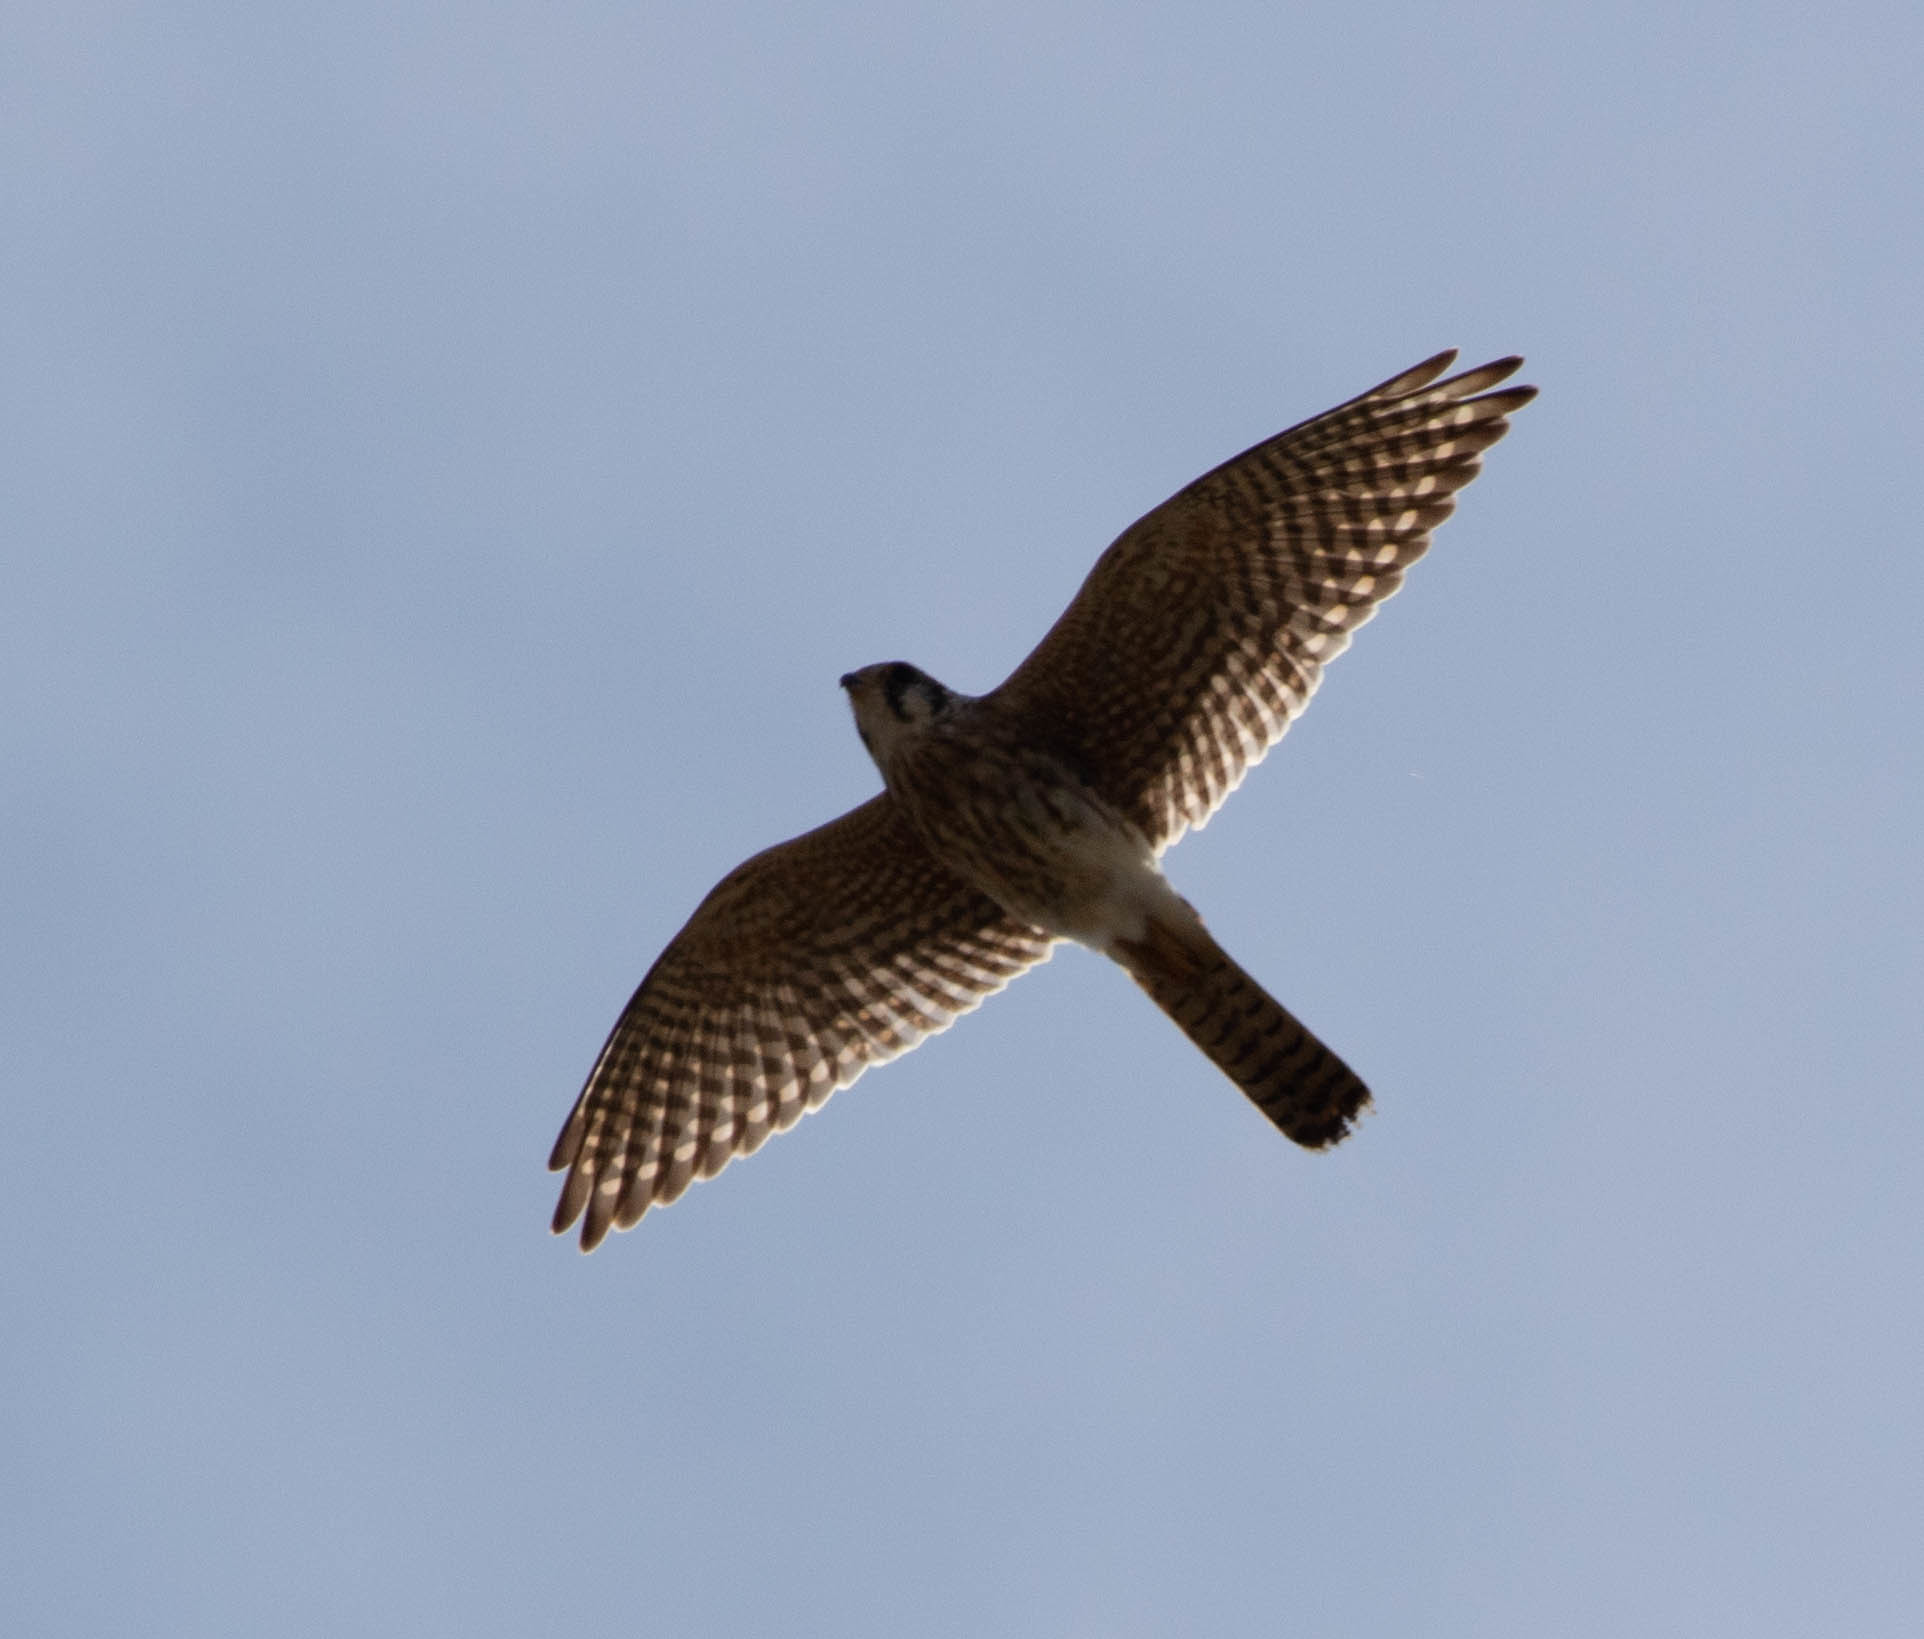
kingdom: Animalia
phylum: Chordata
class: Aves
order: Falconiformes
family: Falconidae
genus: Falco
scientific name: Falco sparverius
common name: American kestrel
